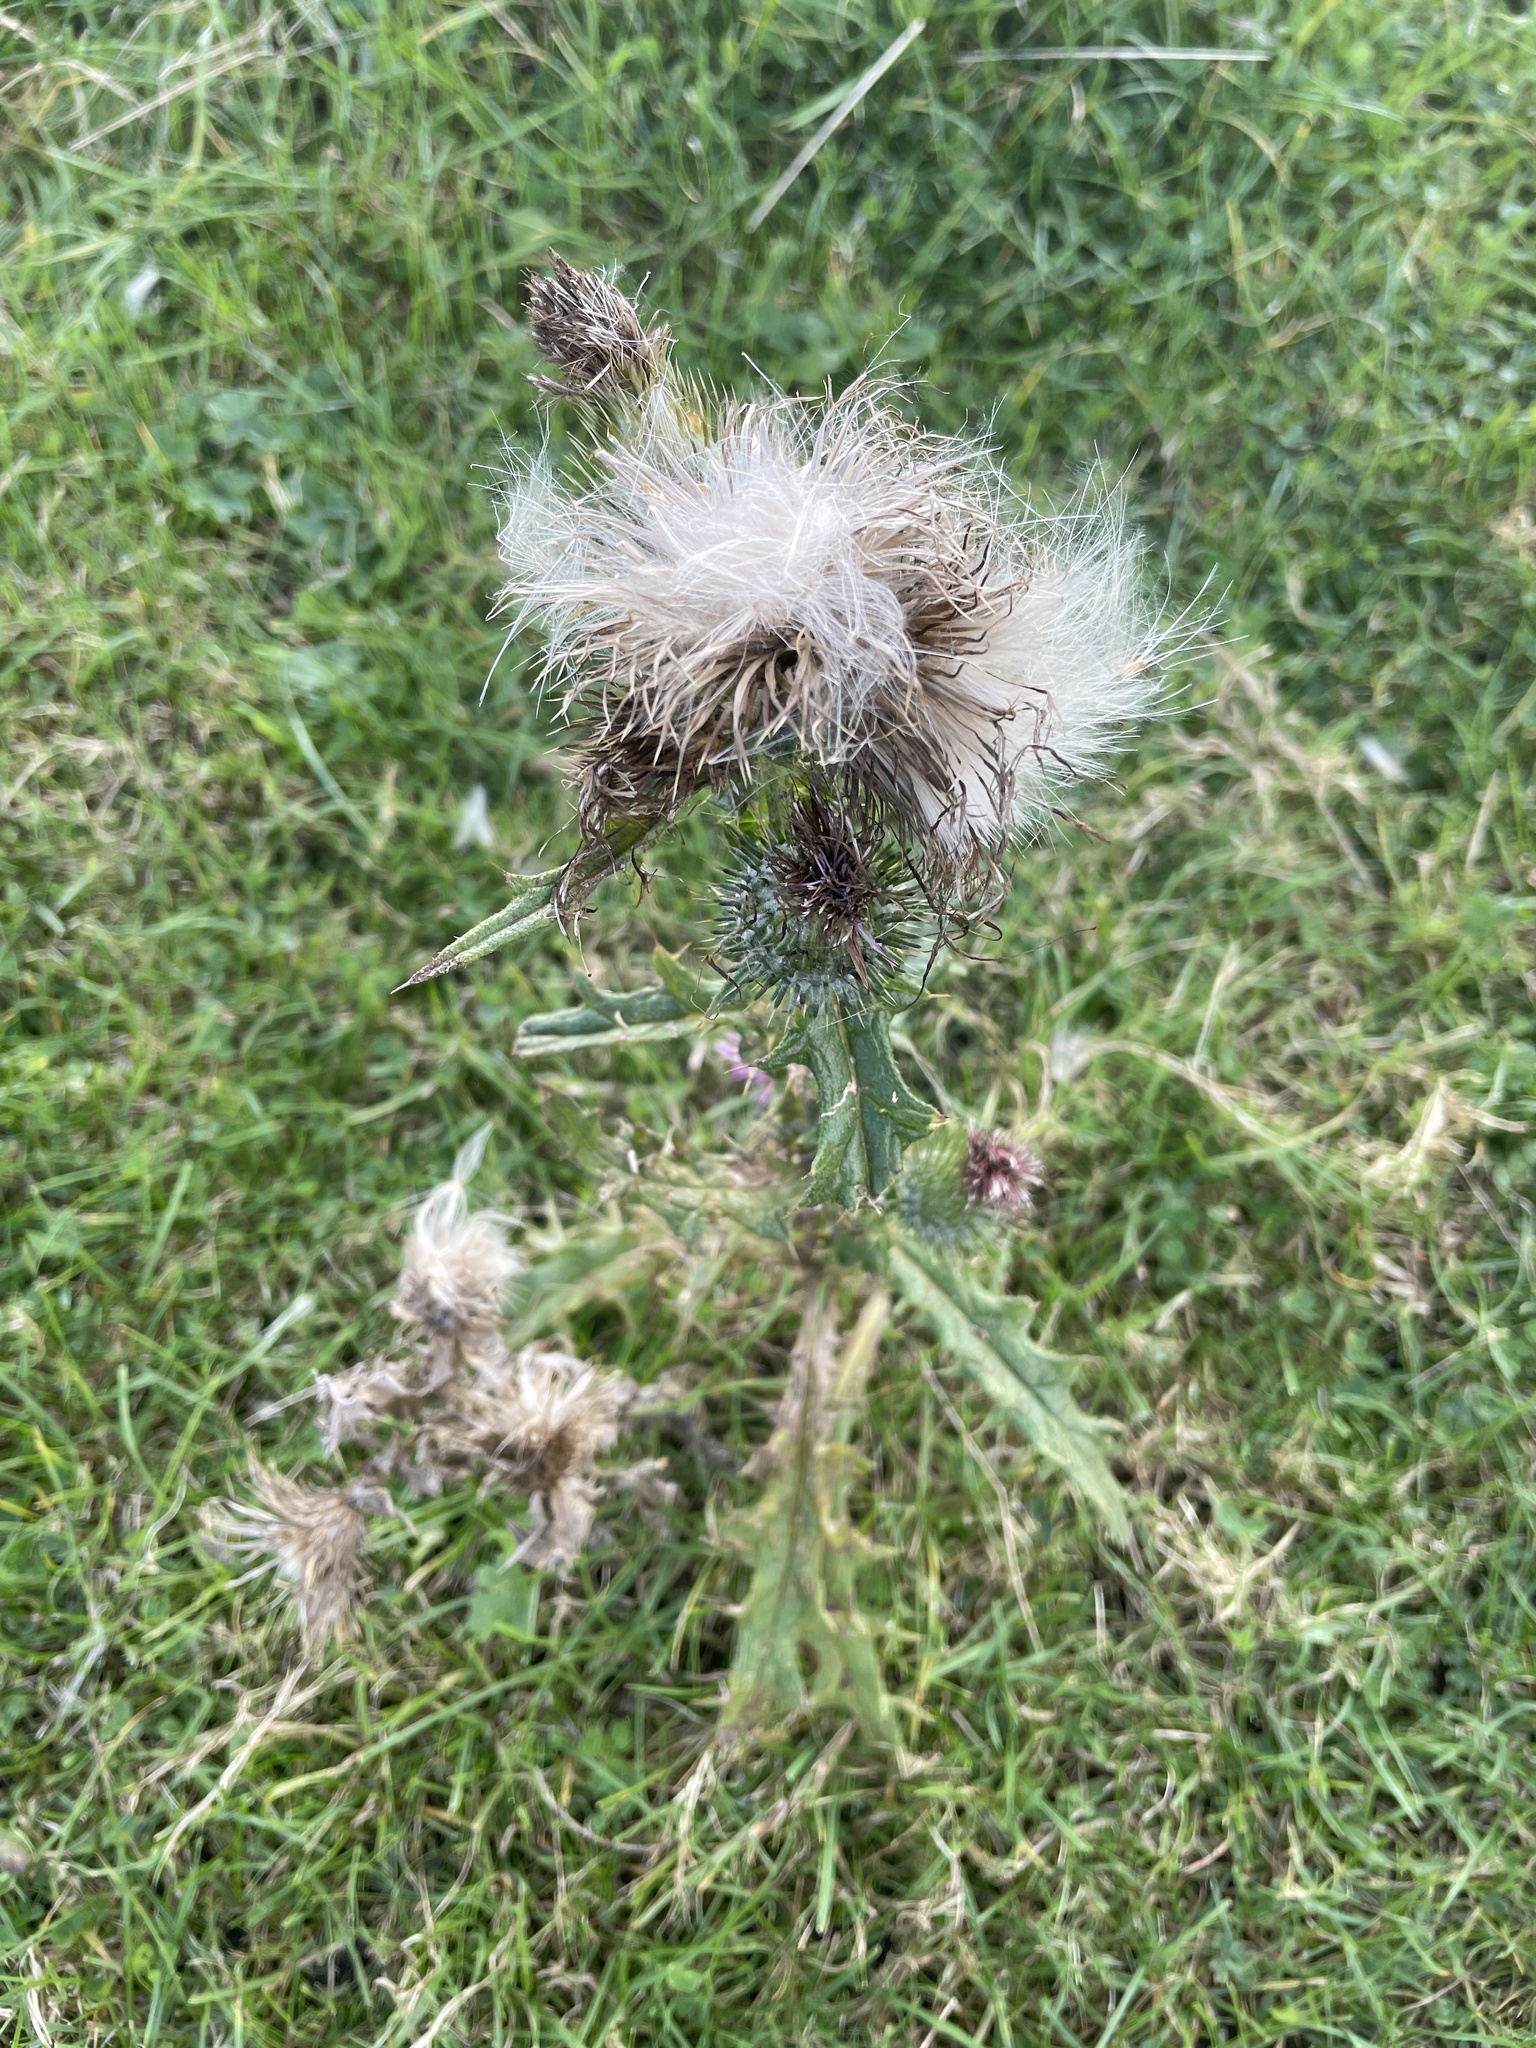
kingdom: Plantae
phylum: Tracheophyta
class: Magnoliopsida
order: Asterales
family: Asteraceae
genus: Cirsium
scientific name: Cirsium vulgare
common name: Bull thistle
